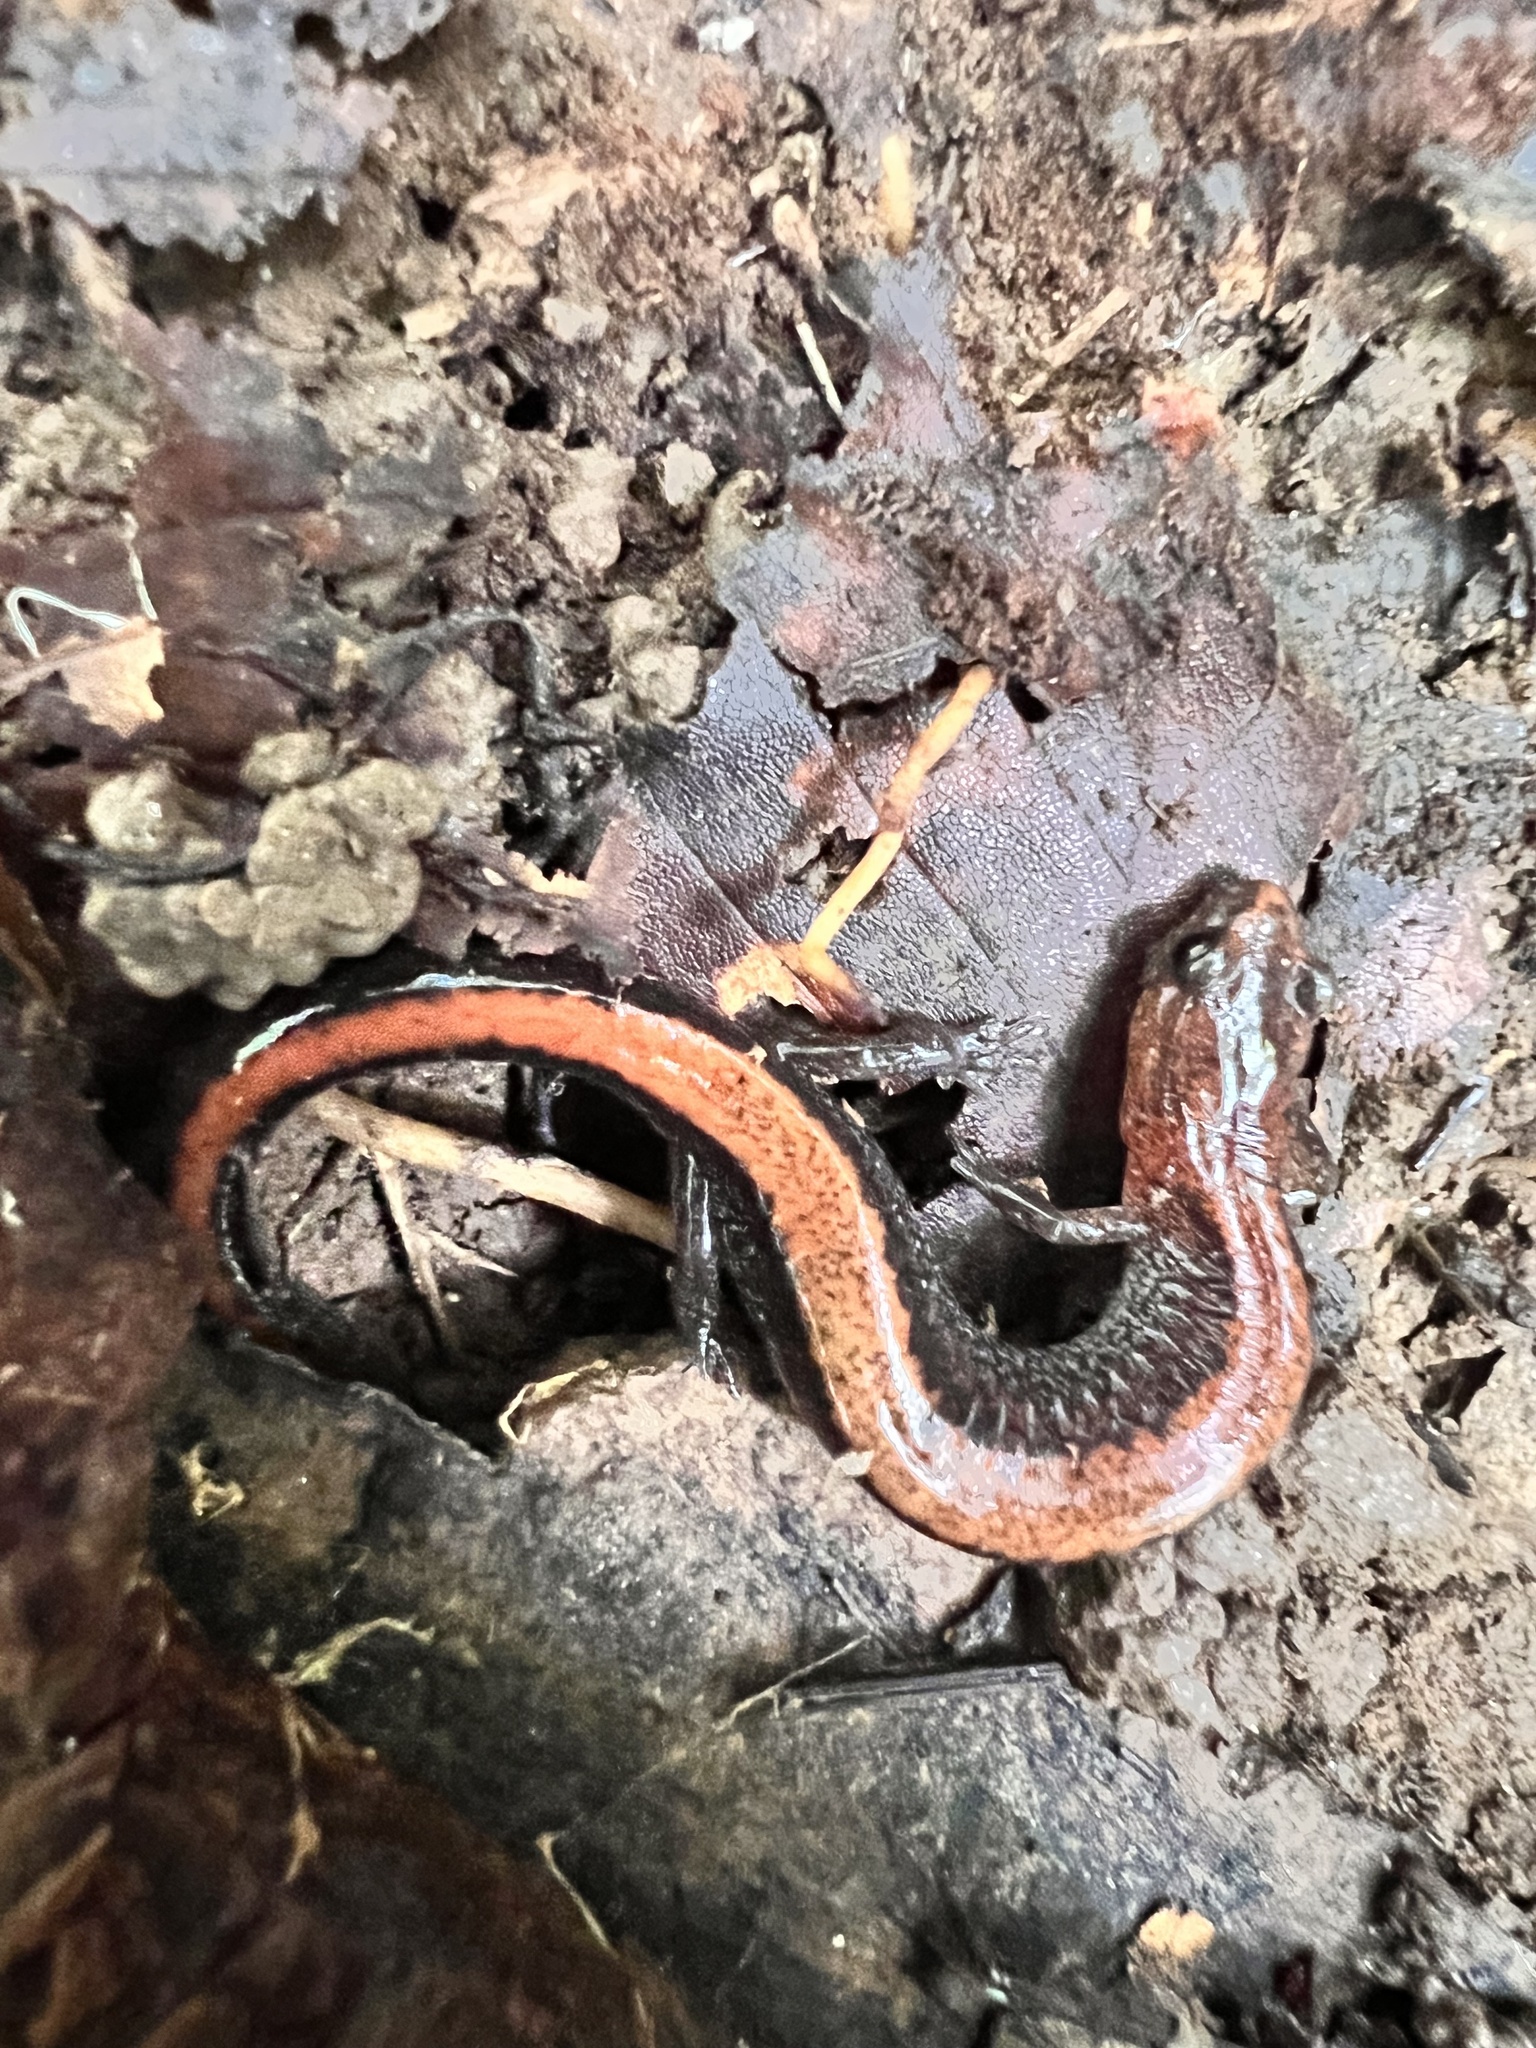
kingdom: Animalia
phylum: Chordata
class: Amphibia
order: Caudata
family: Plethodontidae
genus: Plethodon
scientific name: Plethodon cinereus
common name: Redback salamander
